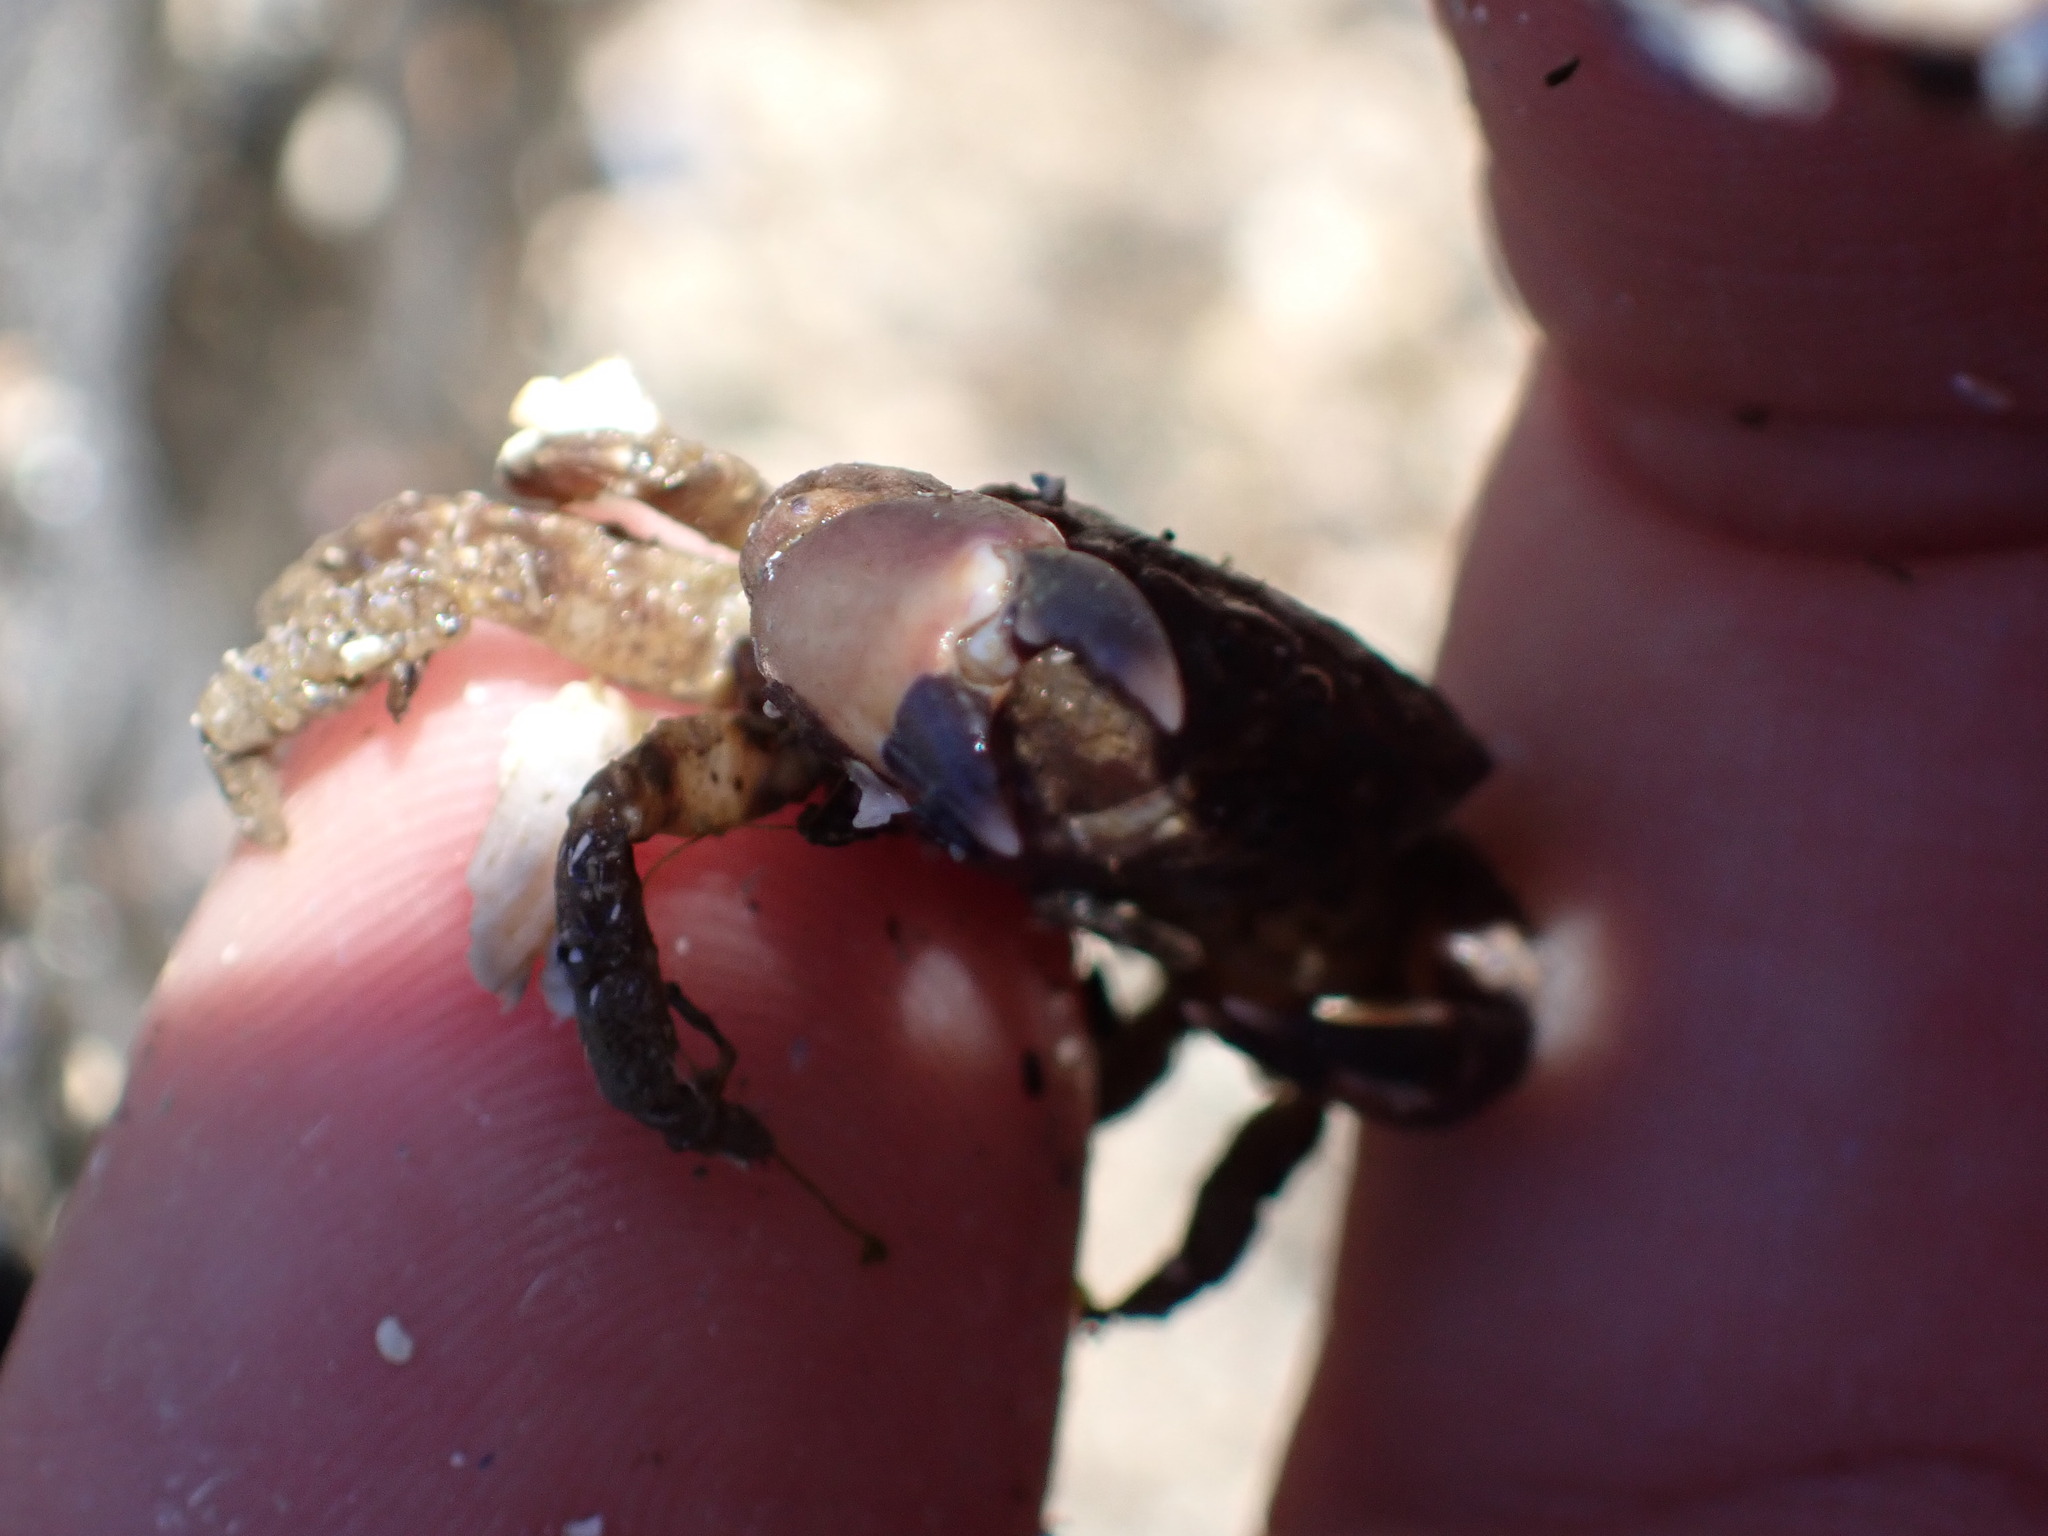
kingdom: Animalia
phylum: Arthropoda
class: Malacostraca
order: Decapoda
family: Panopeidae
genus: Lophopanopeus
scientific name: Lophopanopeus bellus
